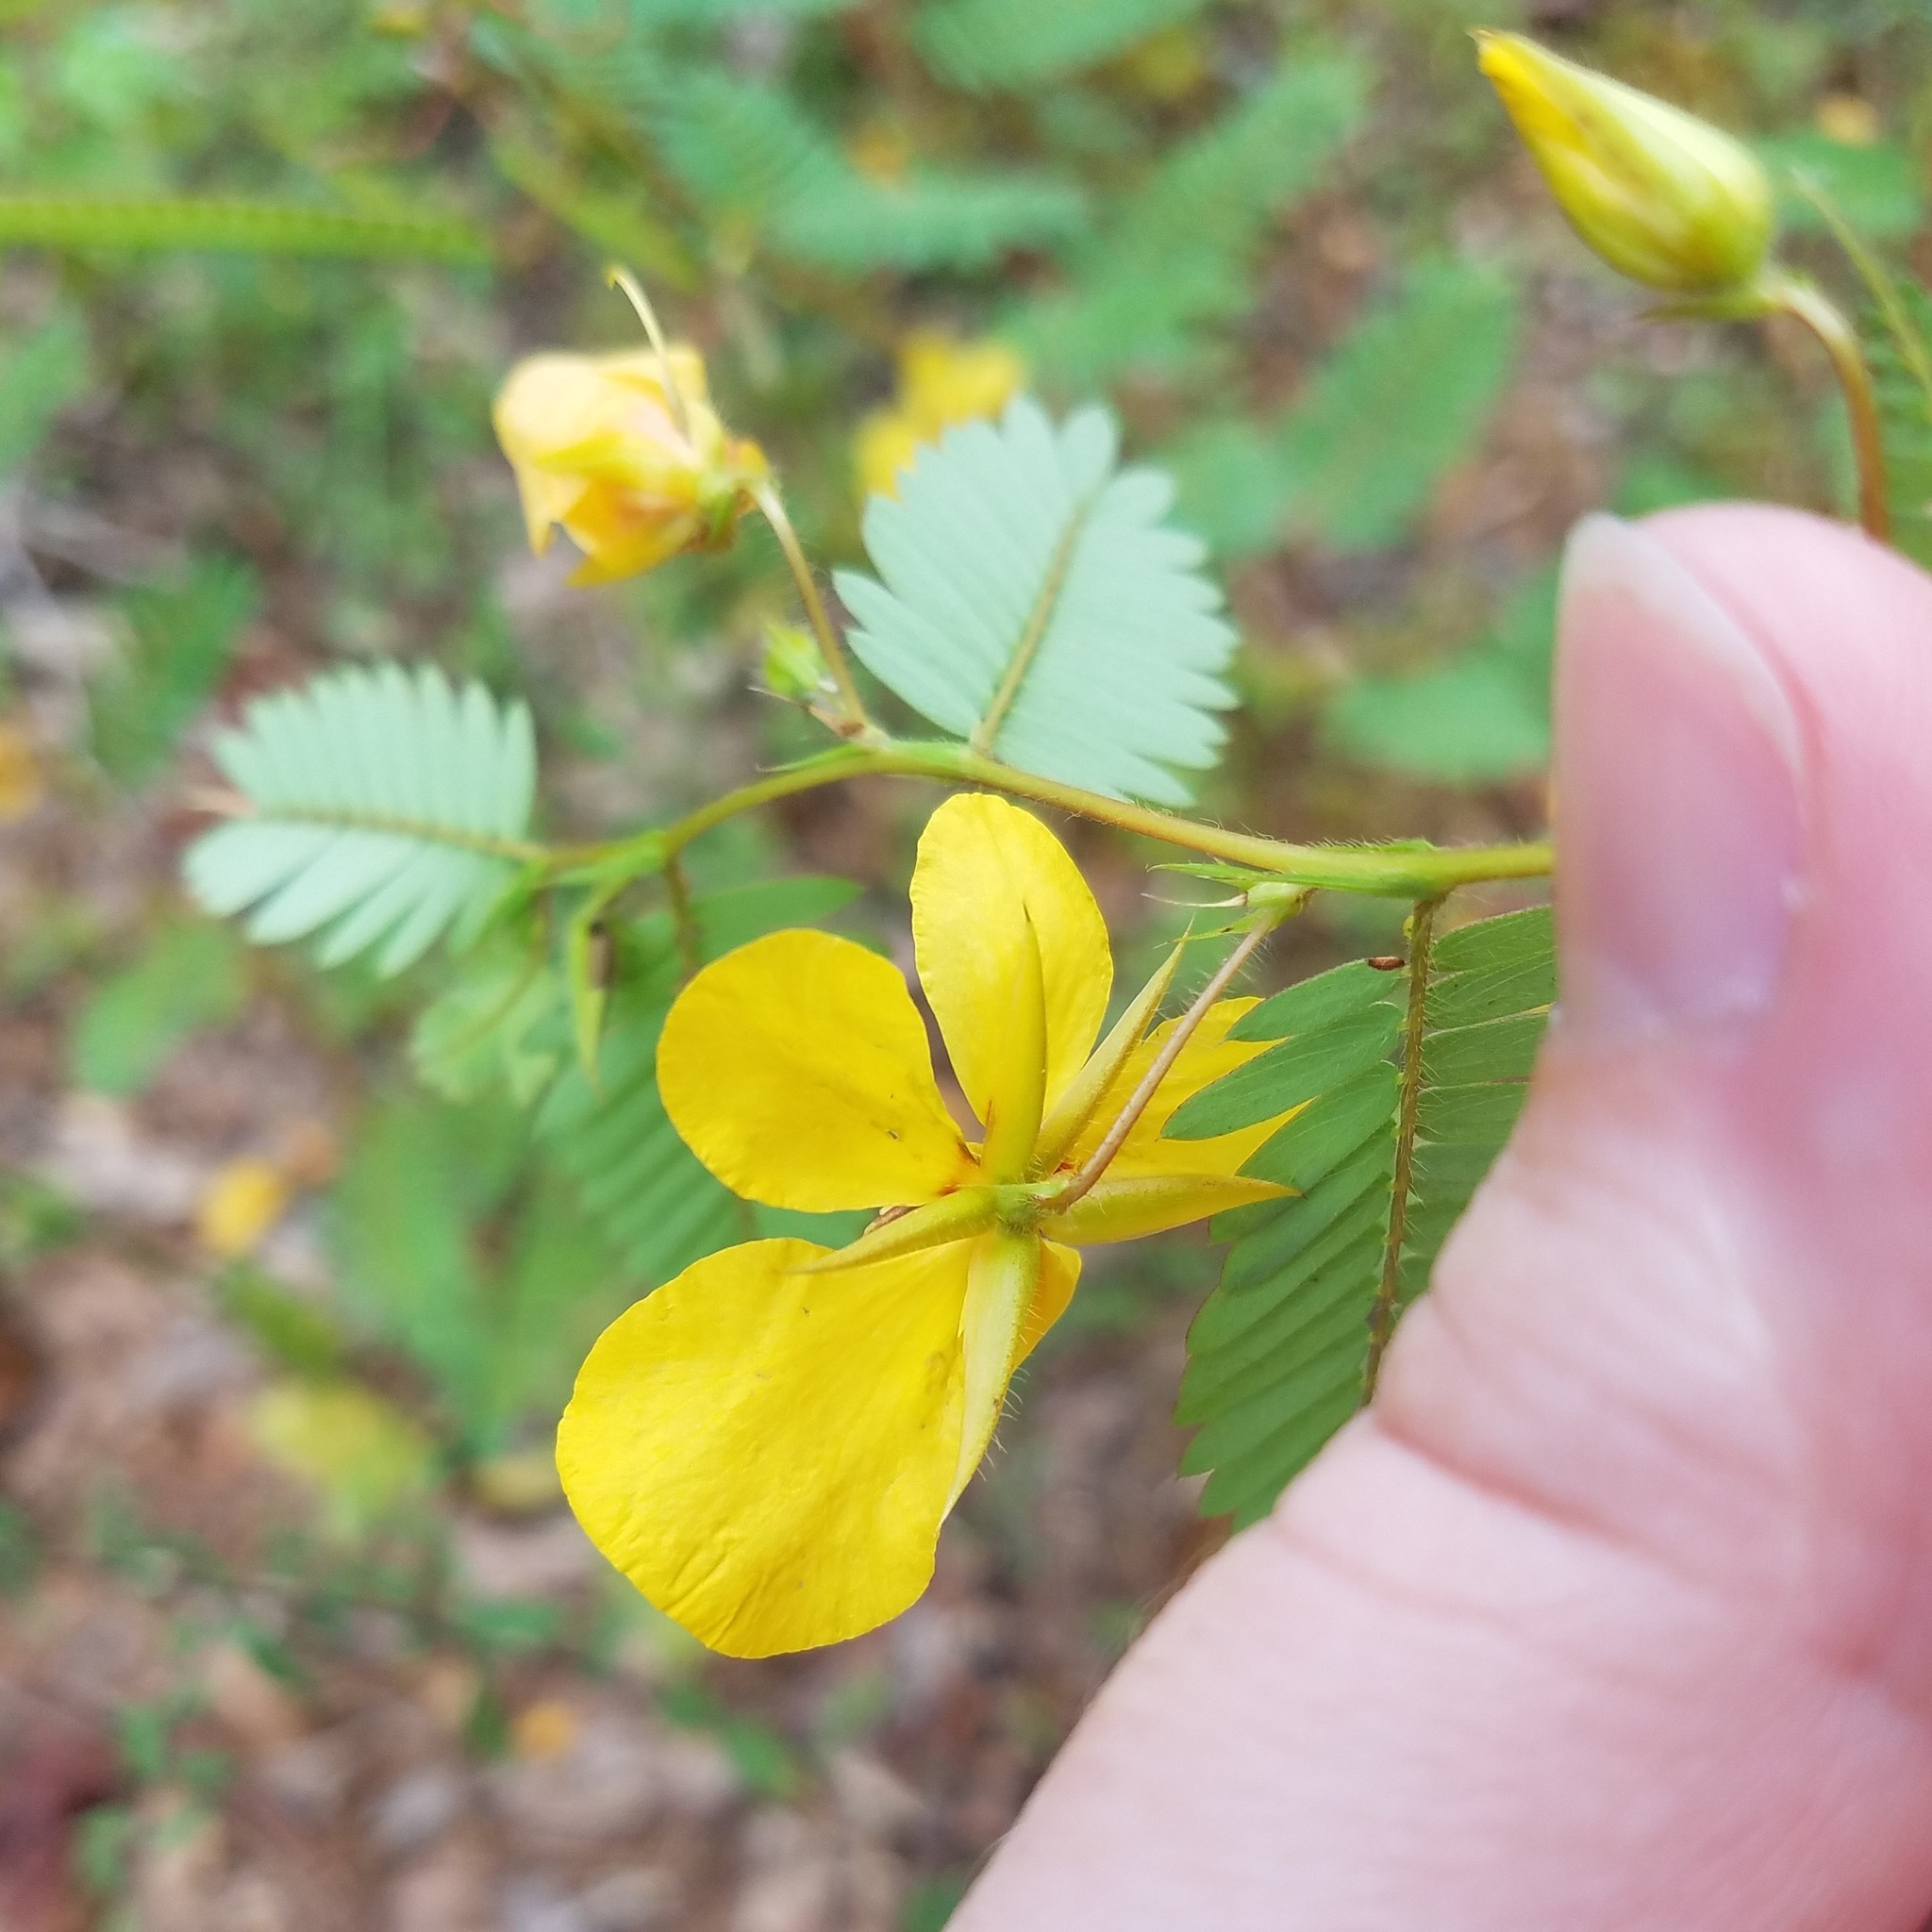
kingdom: Plantae
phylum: Tracheophyta
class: Magnoliopsida
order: Fabales
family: Fabaceae
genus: Chamaecrista
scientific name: Chamaecrista fasciculata
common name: Golden cassia
